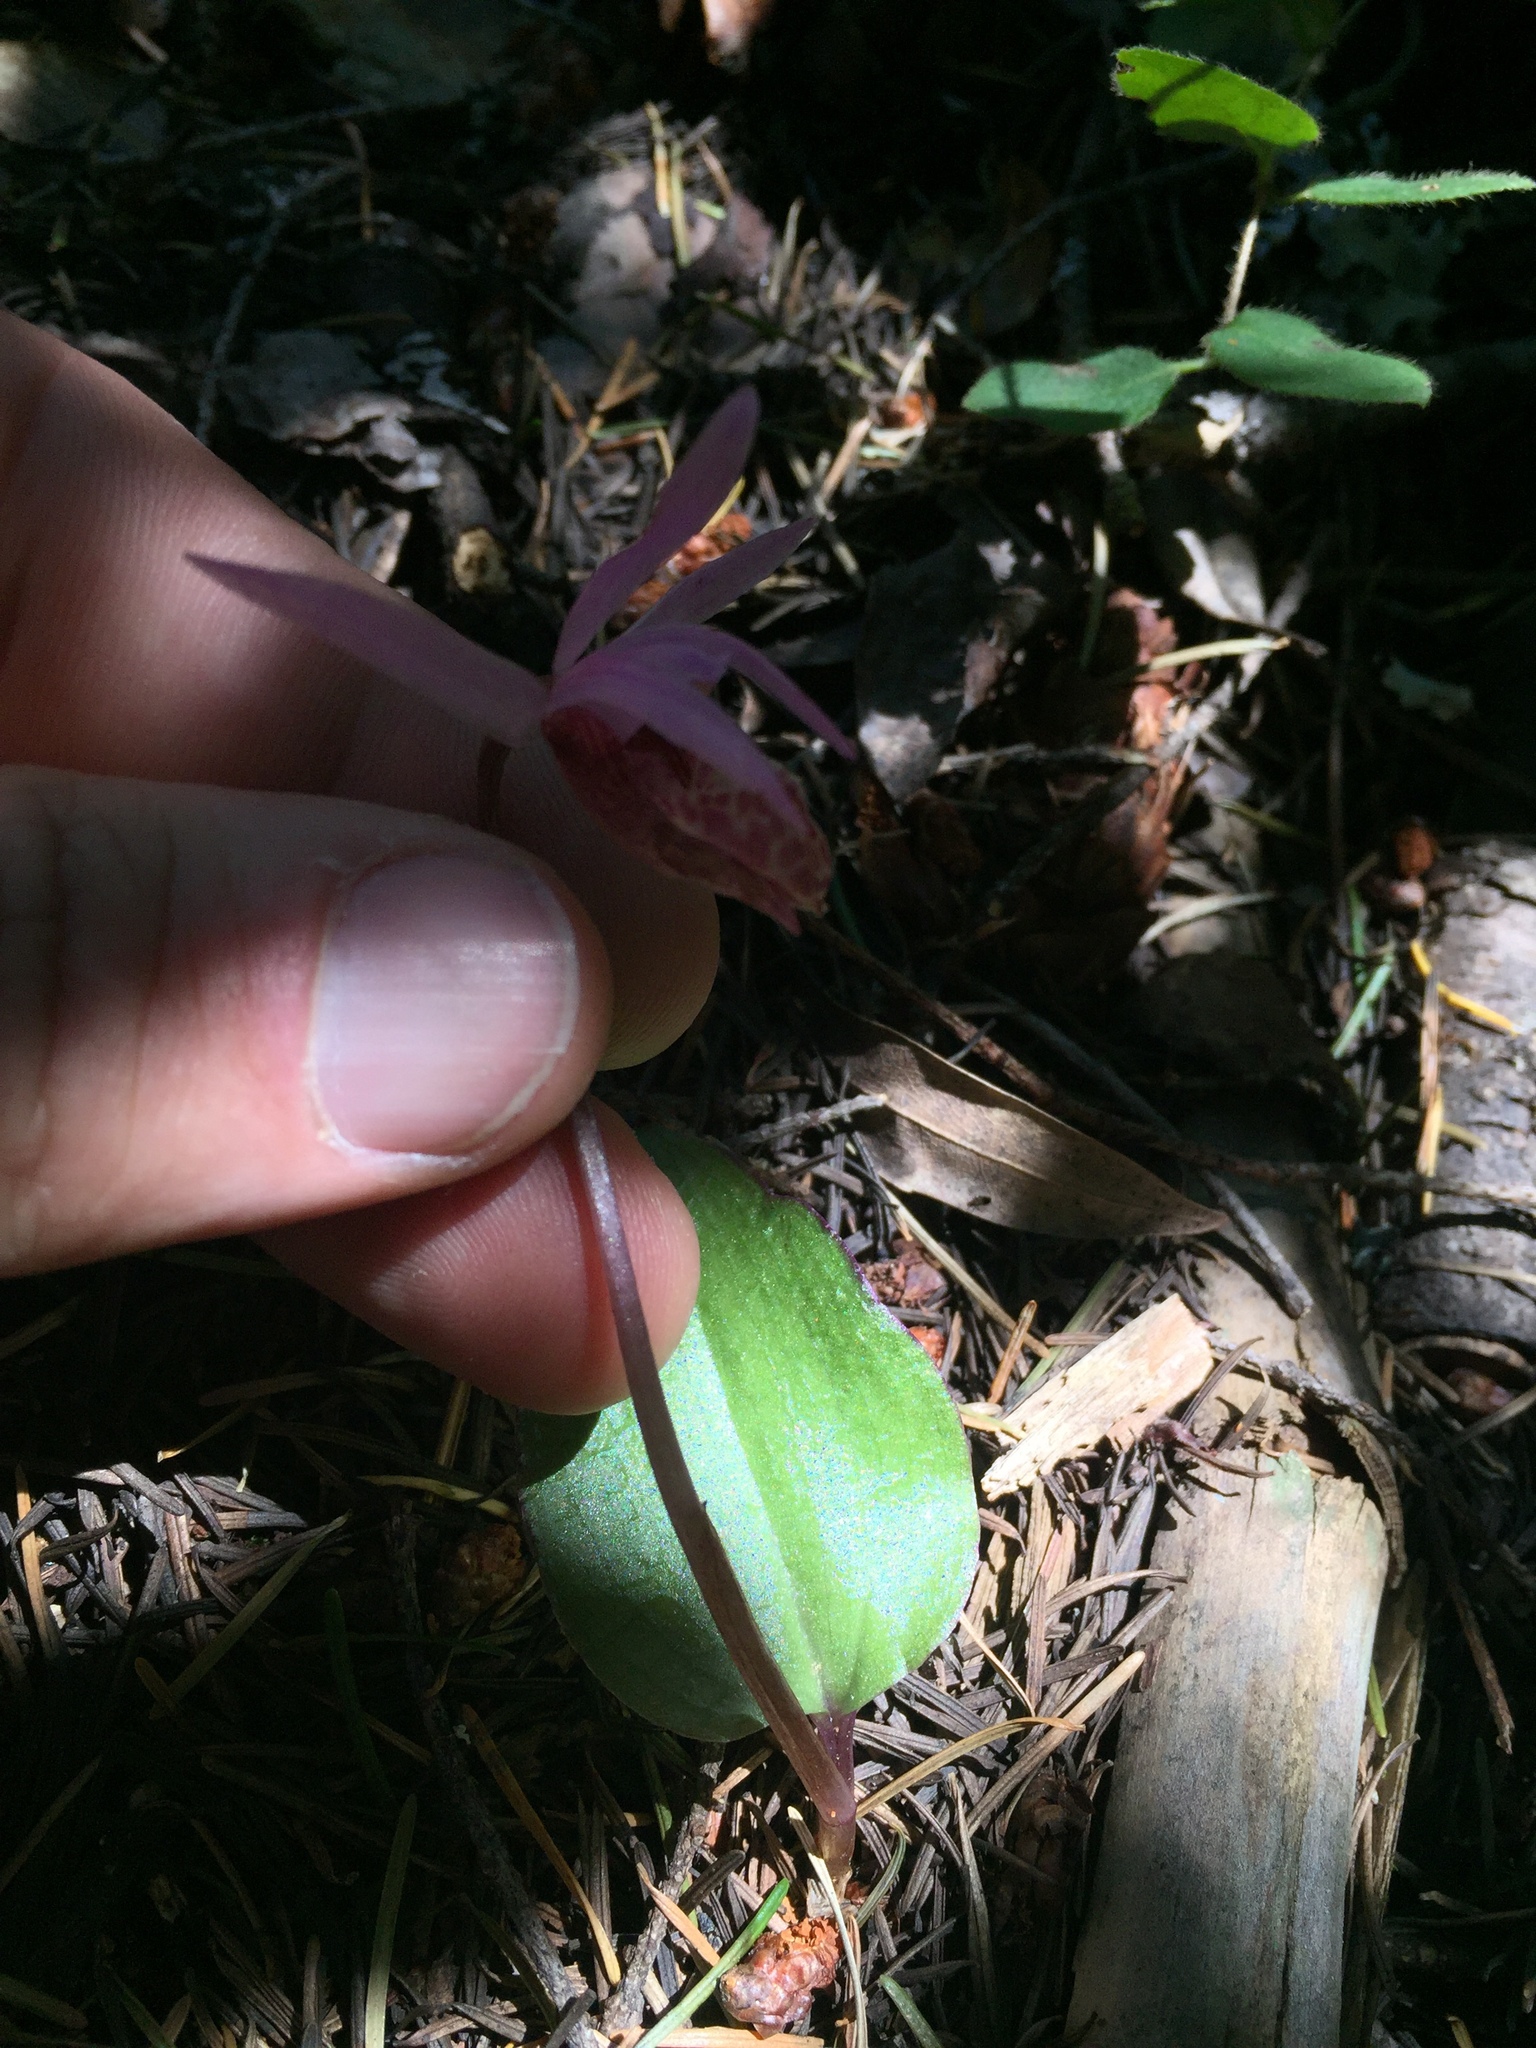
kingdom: Plantae
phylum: Tracheophyta
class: Liliopsida
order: Asparagales
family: Orchidaceae
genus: Calypso
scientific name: Calypso bulbosa
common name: Calypso
